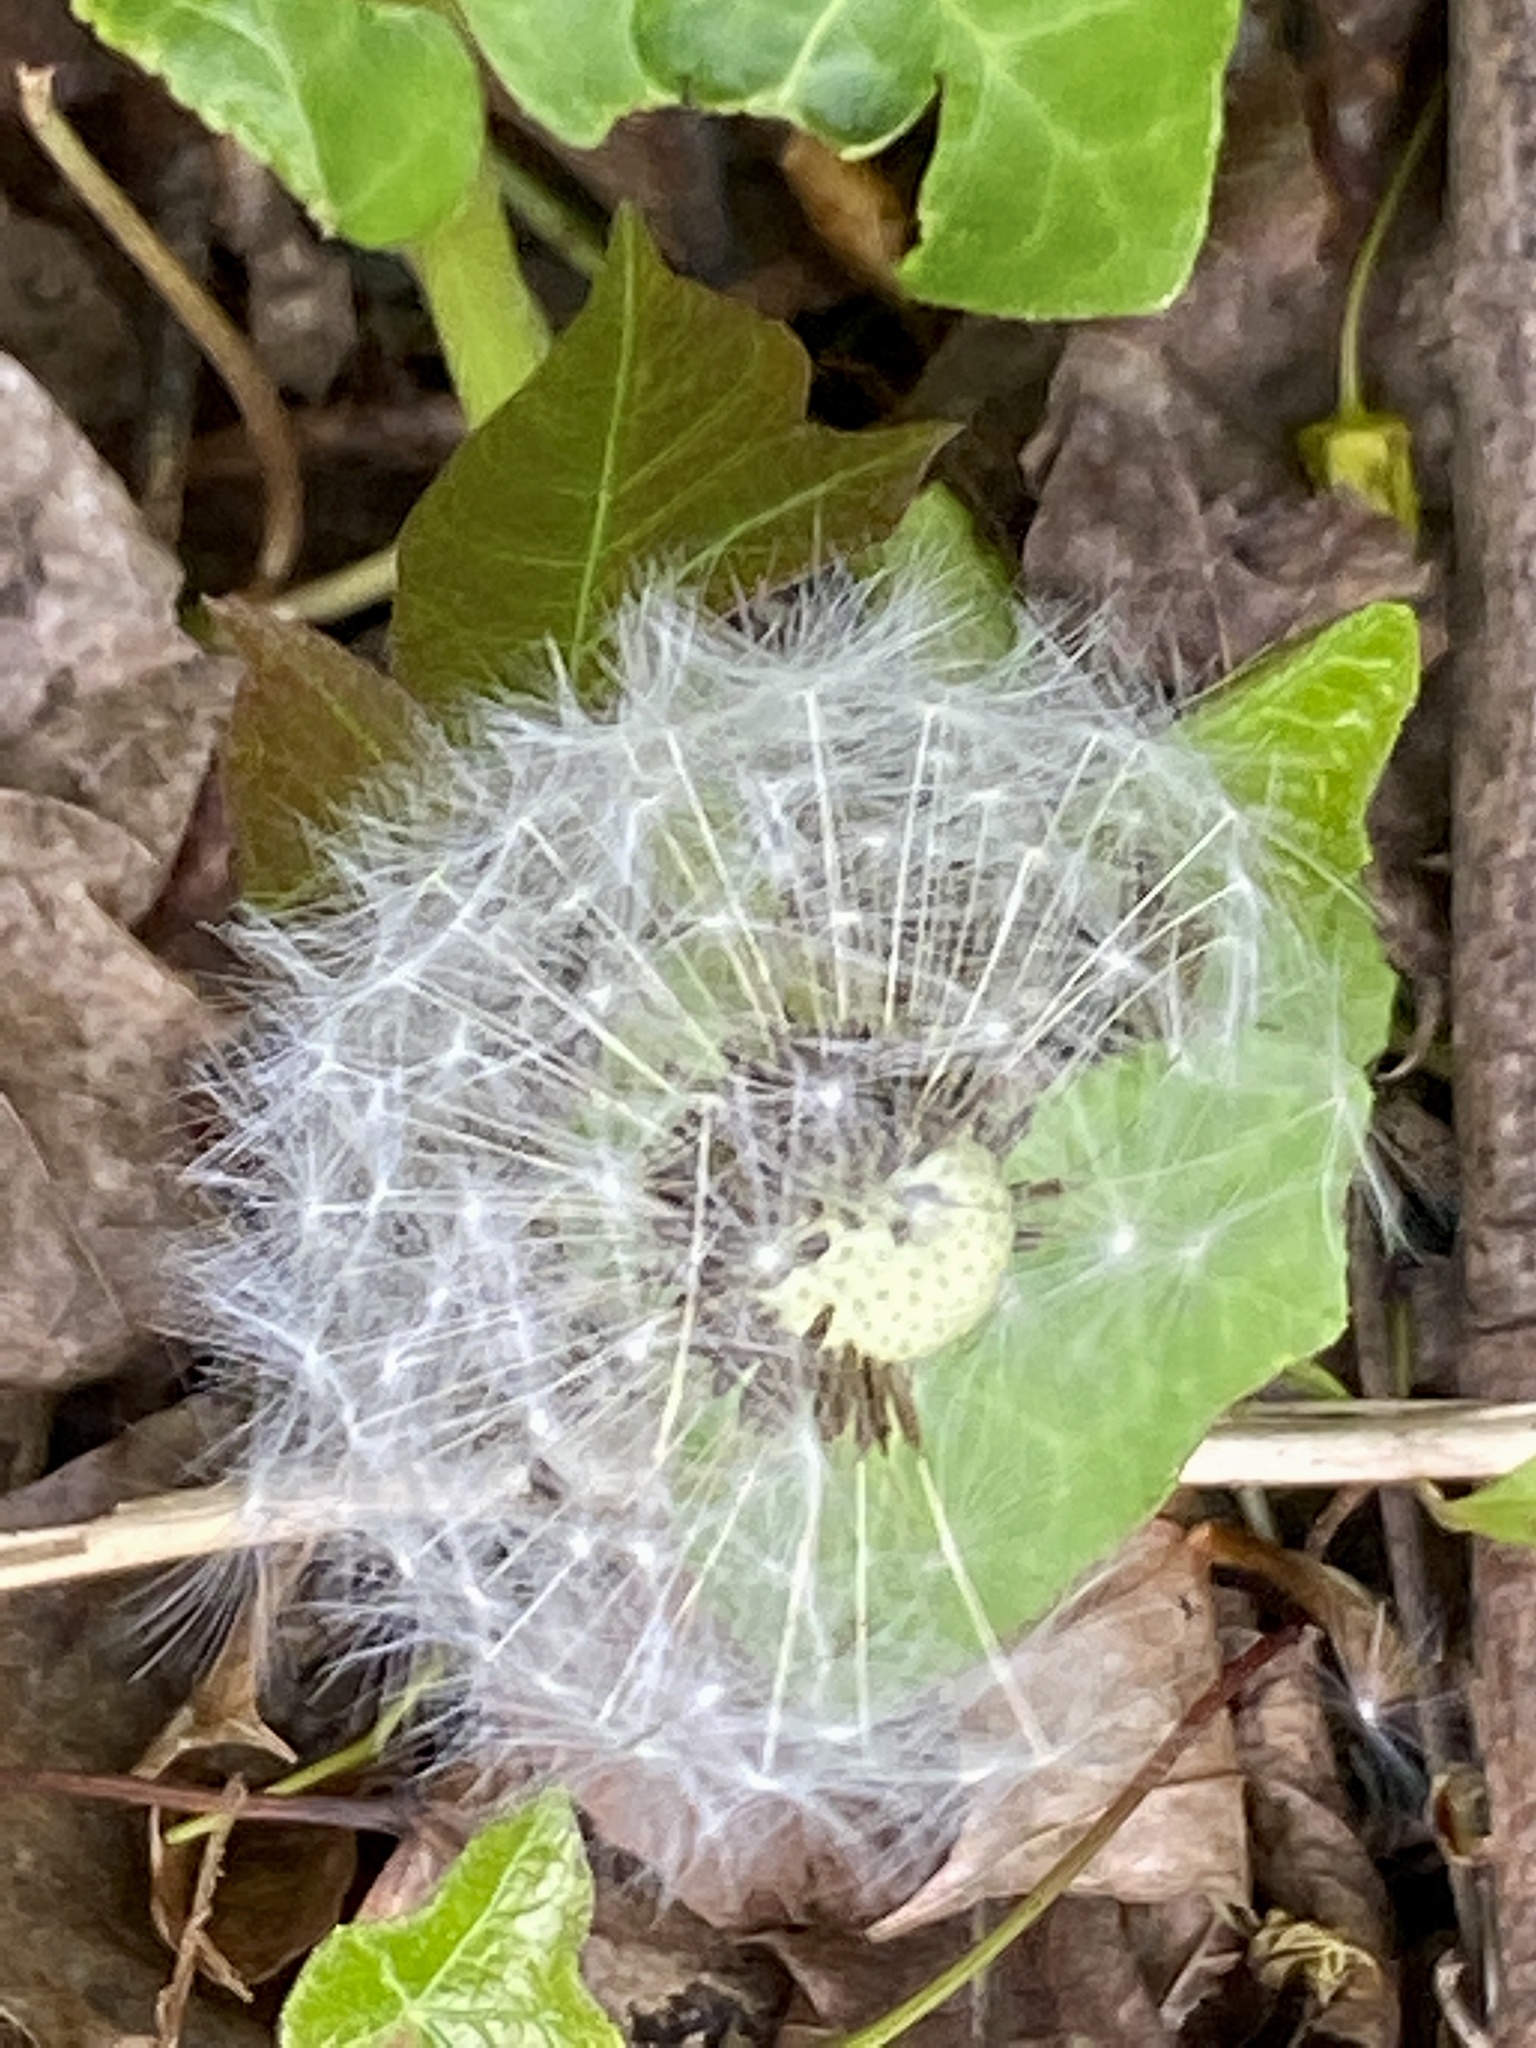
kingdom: Plantae
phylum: Tracheophyta
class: Magnoliopsida
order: Asterales
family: Asteraceae
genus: Taraxacum
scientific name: Taraxacum officinale
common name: Common dandelion
